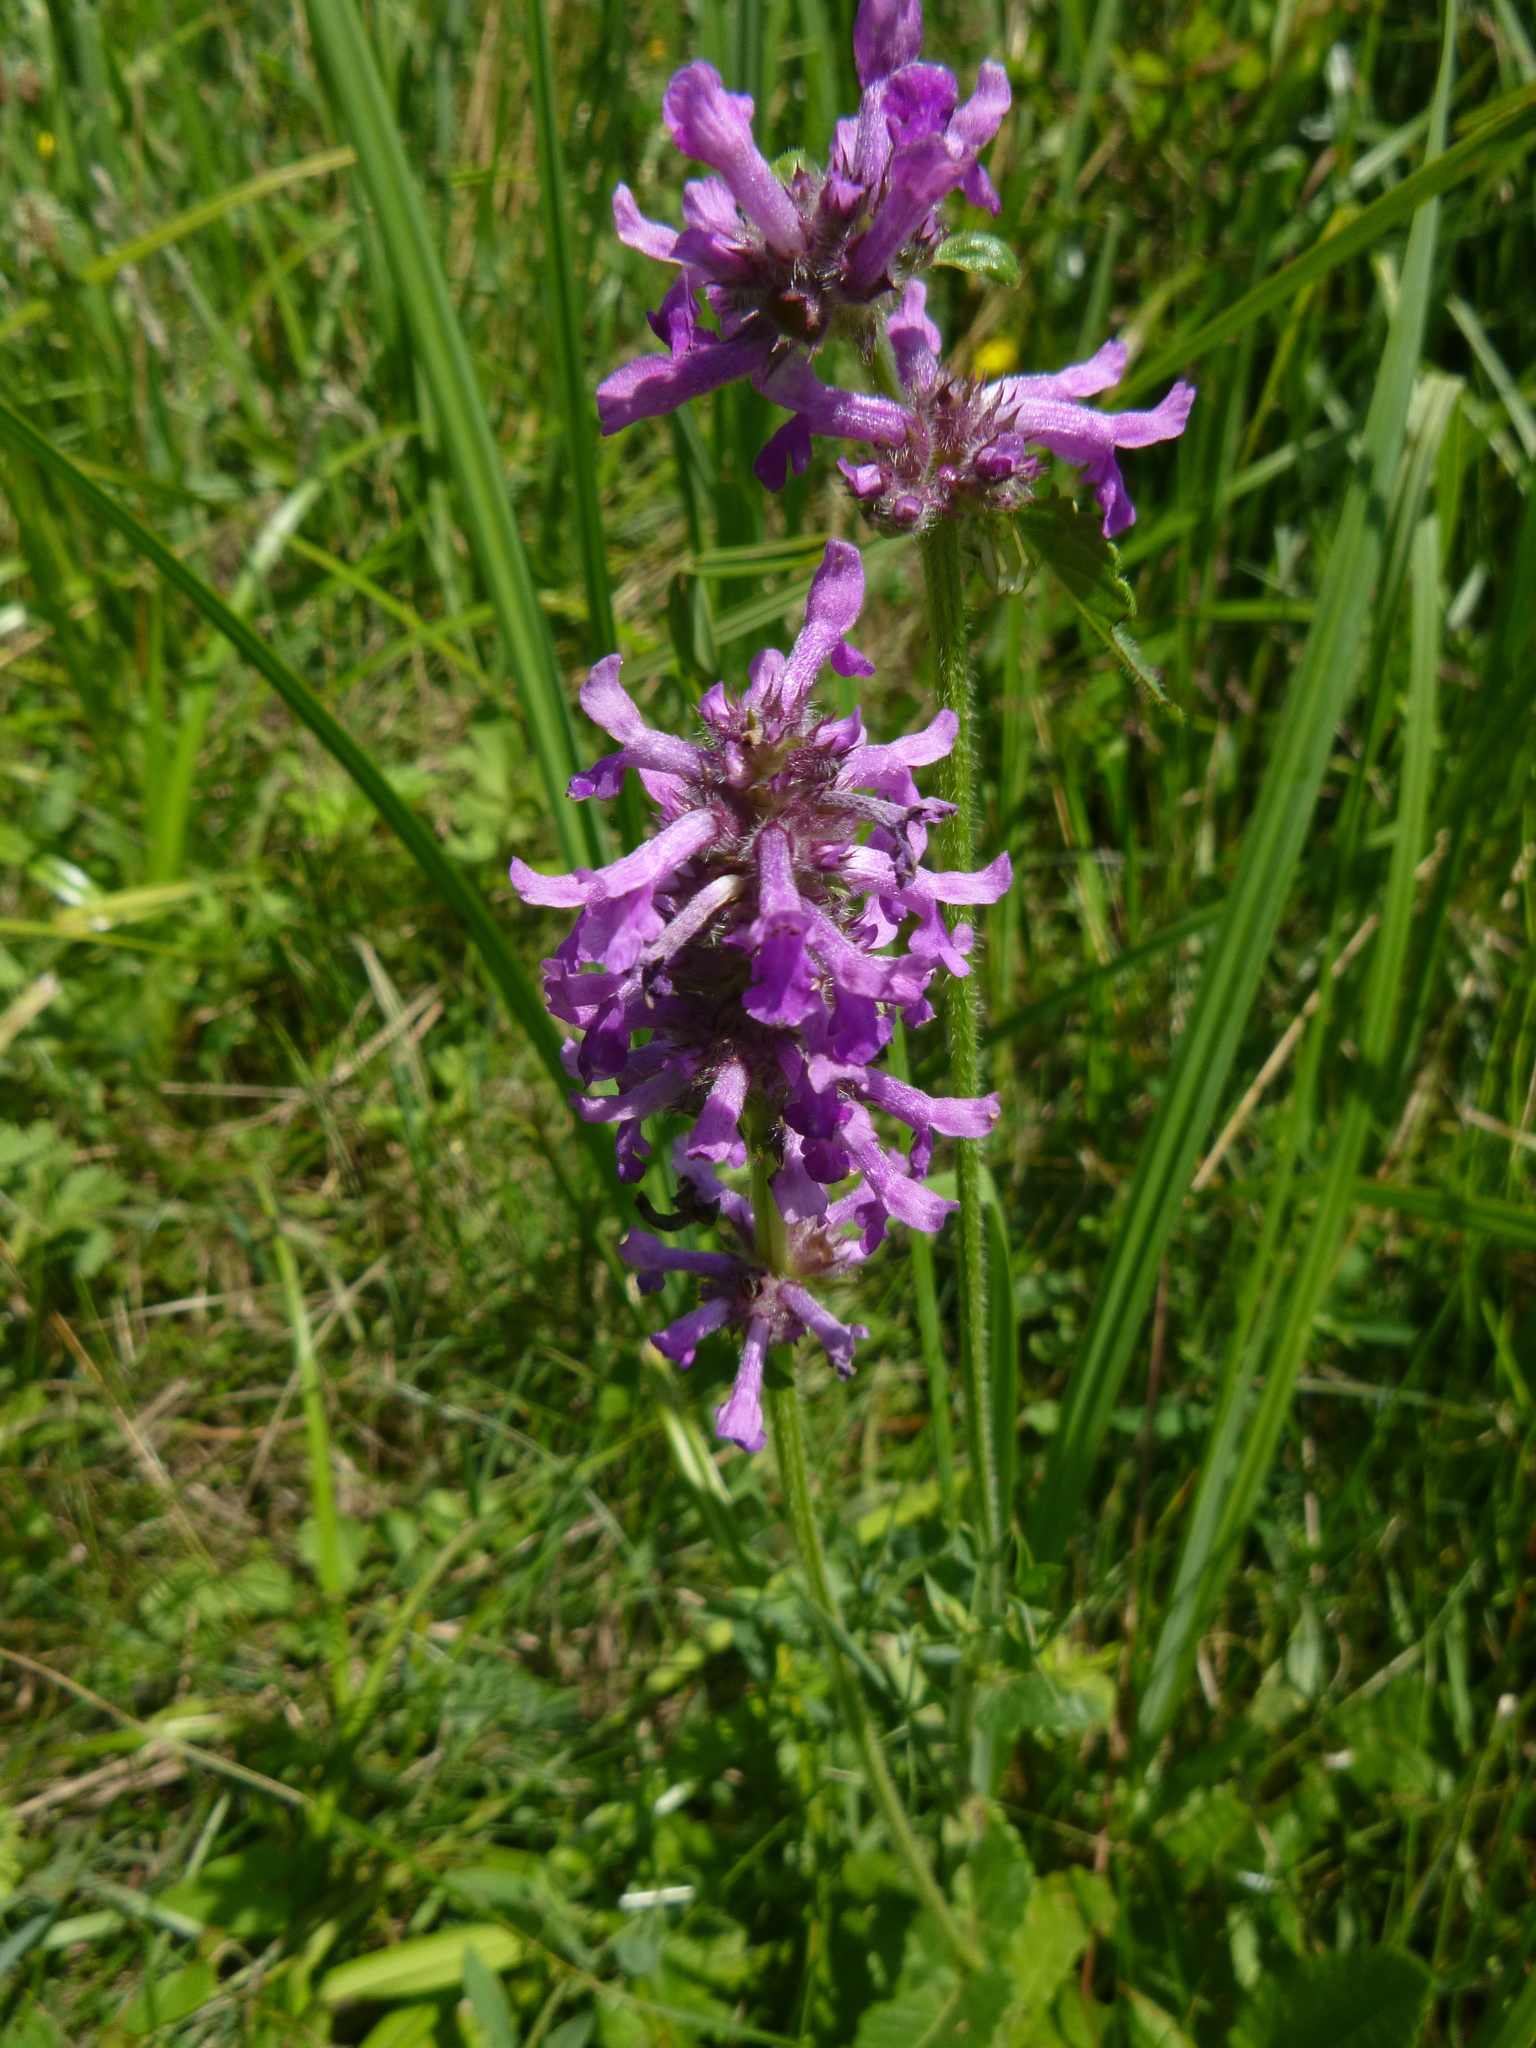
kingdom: Plantae
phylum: Tracheophyta
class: Magnoliopsida
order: Lamiales
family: Lamiaceae
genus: Betonica
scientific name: Betonica officinalis
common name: Bishop's-wort
